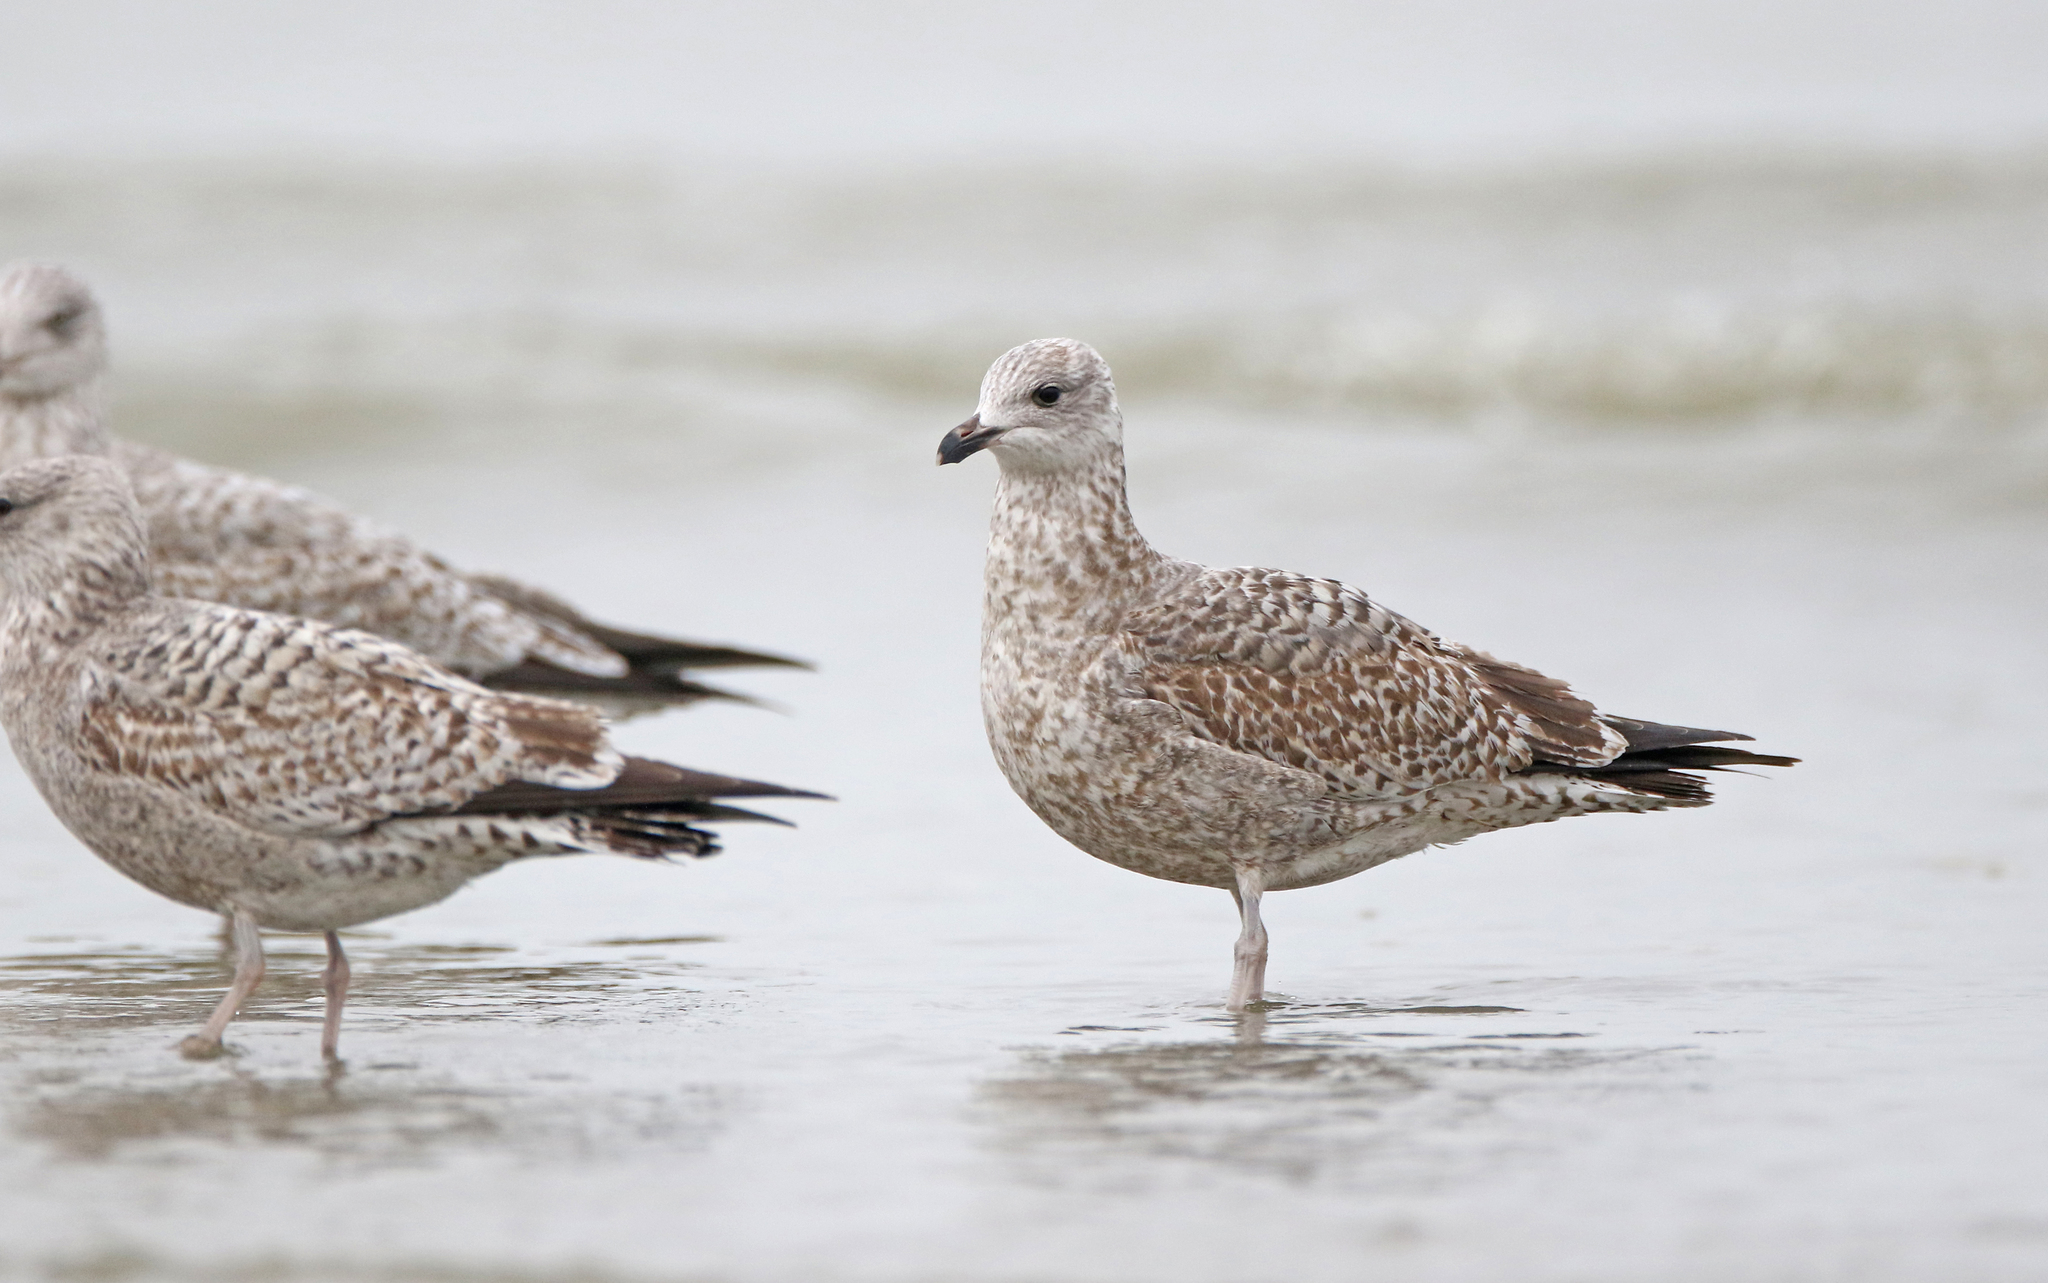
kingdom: Animalia
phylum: Chordata
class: Aves
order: Charadriiformes
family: Laridae
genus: Larus
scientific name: Larus argentatus
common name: Herring gull
